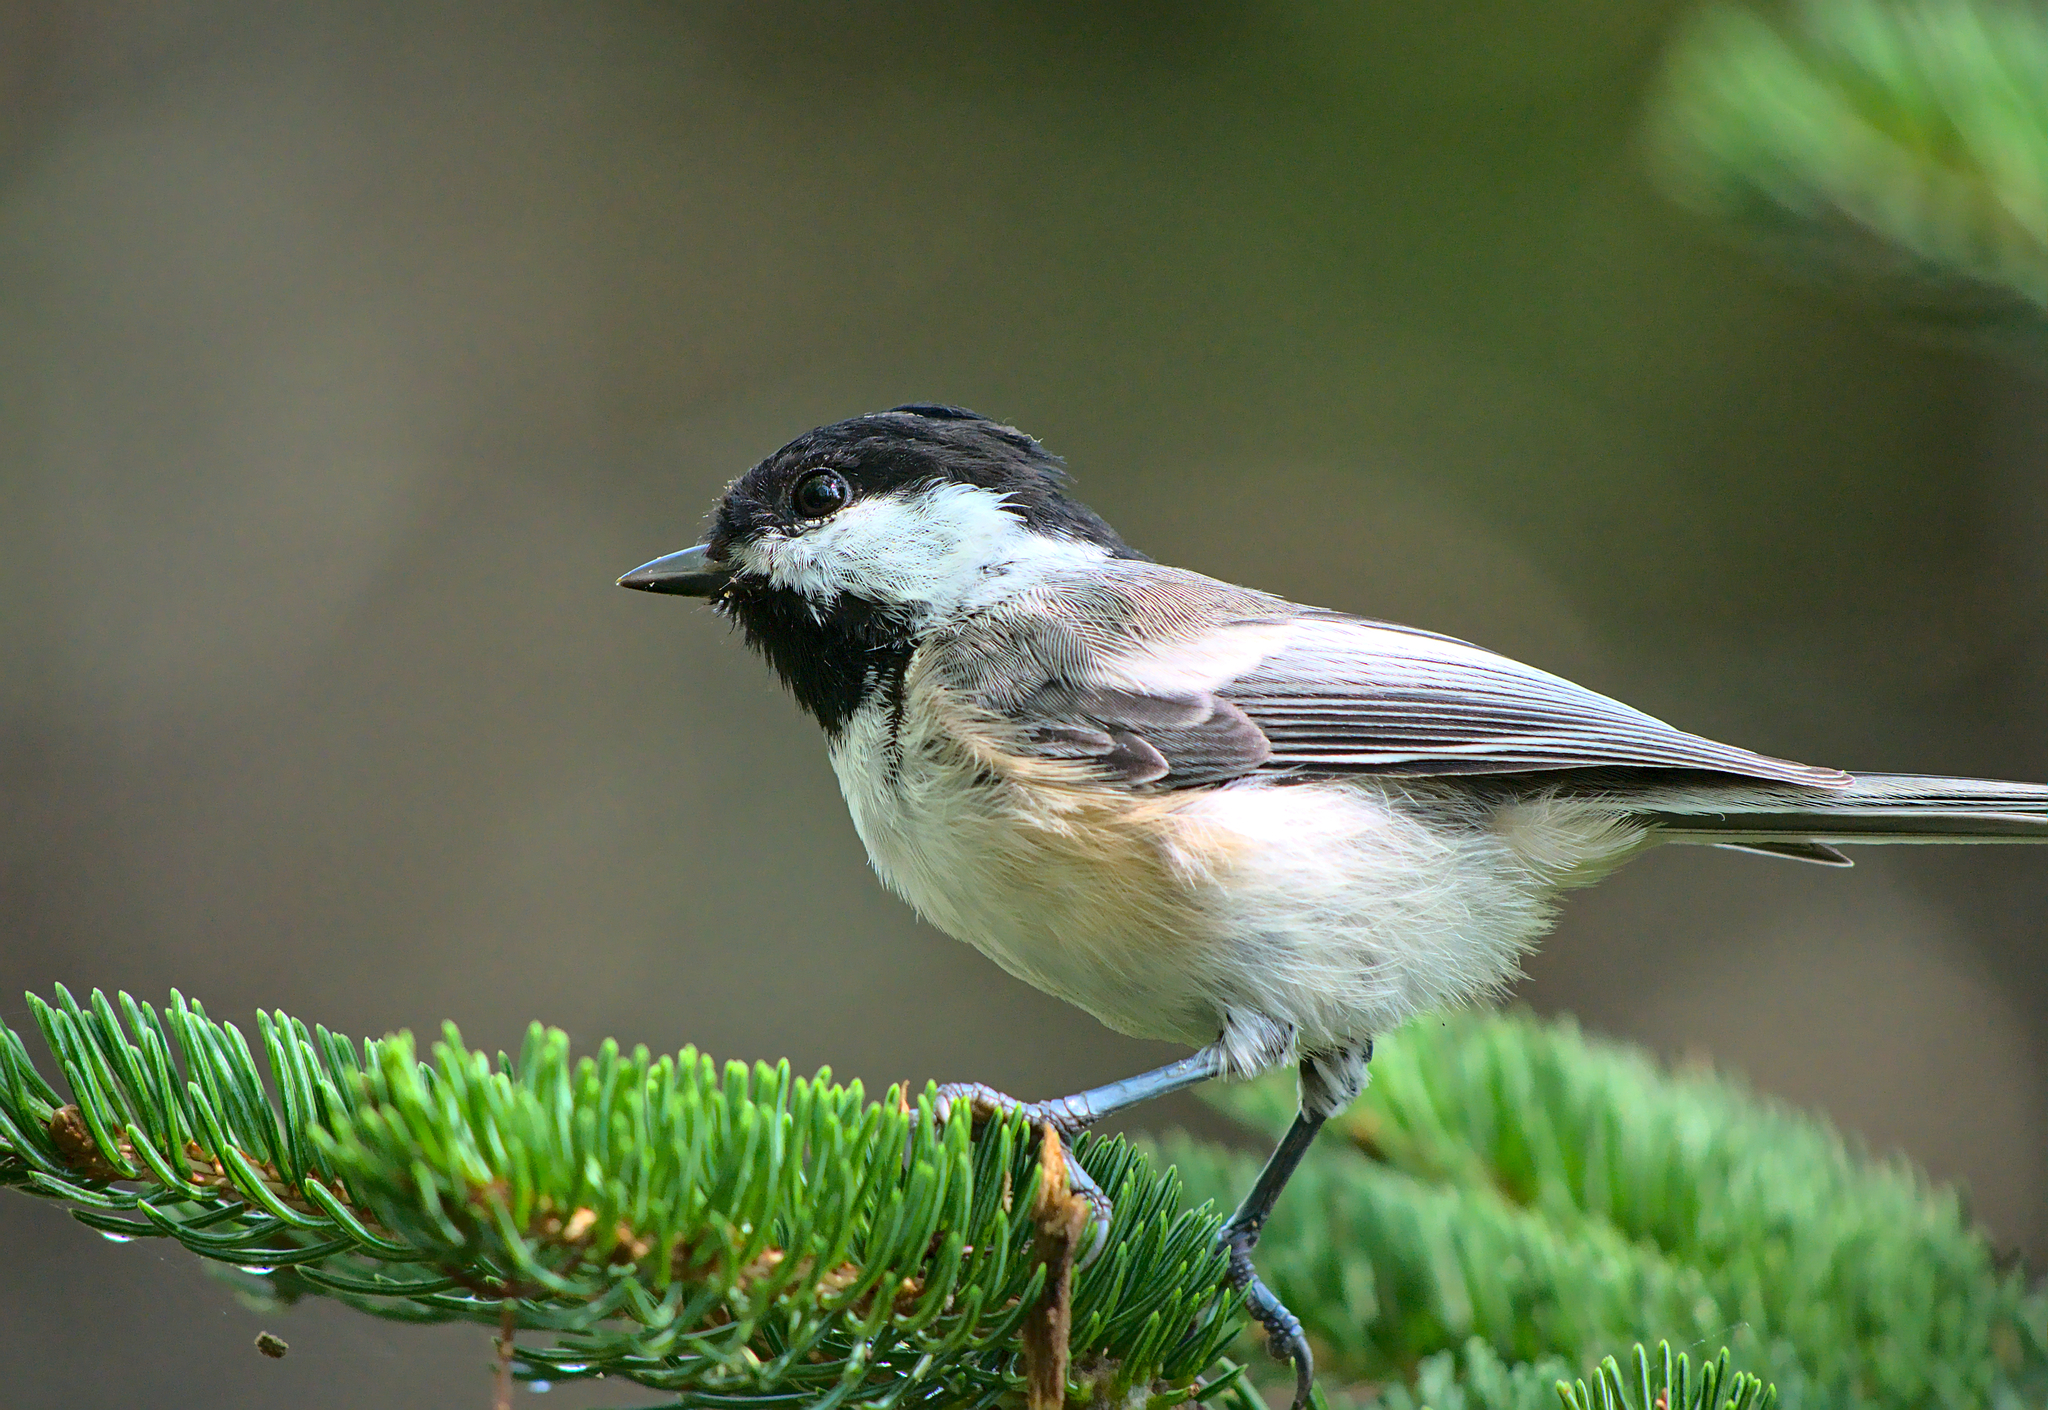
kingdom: Animalia
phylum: Chordata
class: Aves
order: Passeriformes
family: Paridae
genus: Poecile
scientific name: Poecile atricapillus
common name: Black-capped chickadee
